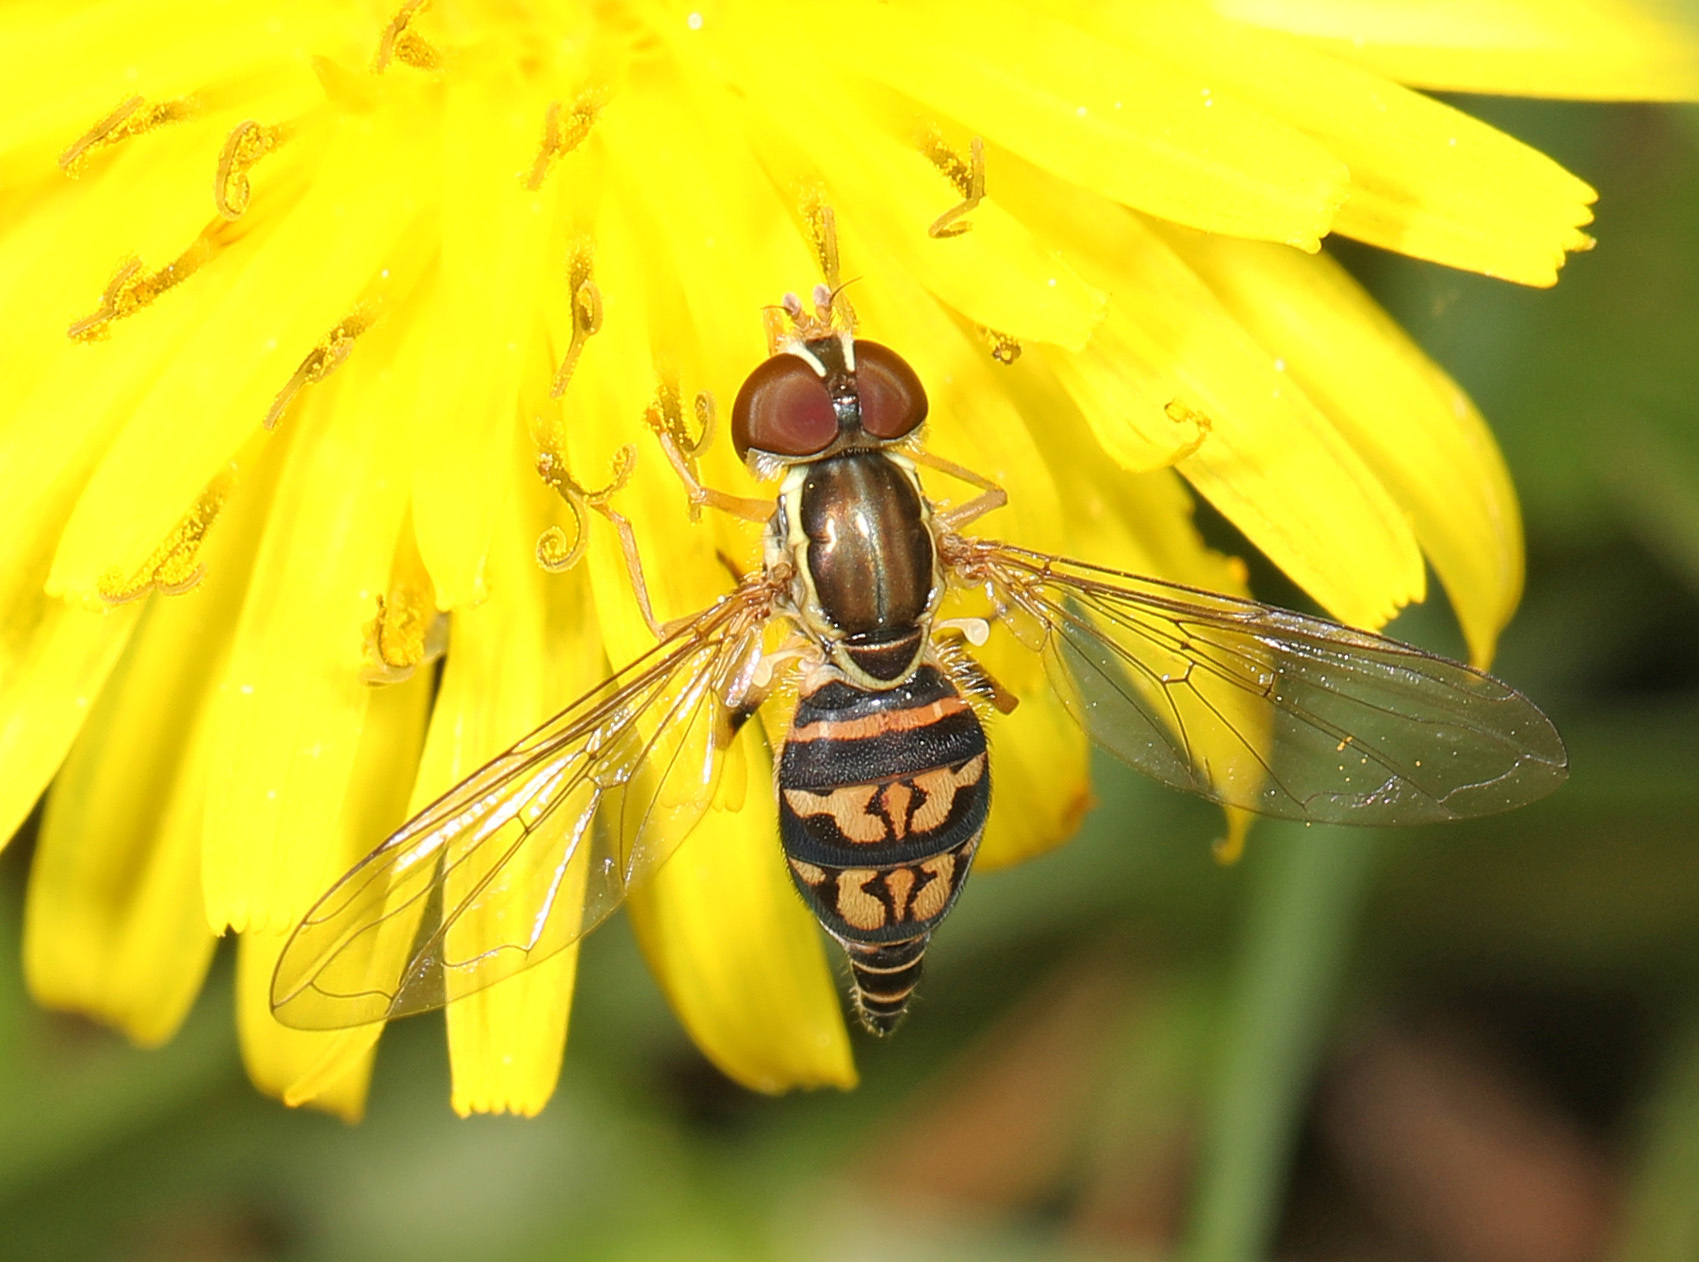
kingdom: Animalia
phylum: Arthropoda
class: Insecta
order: Diptera
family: Syrphidae
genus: Toxomerus
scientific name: Toxomerus geminatus
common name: Eastern calligrapher
